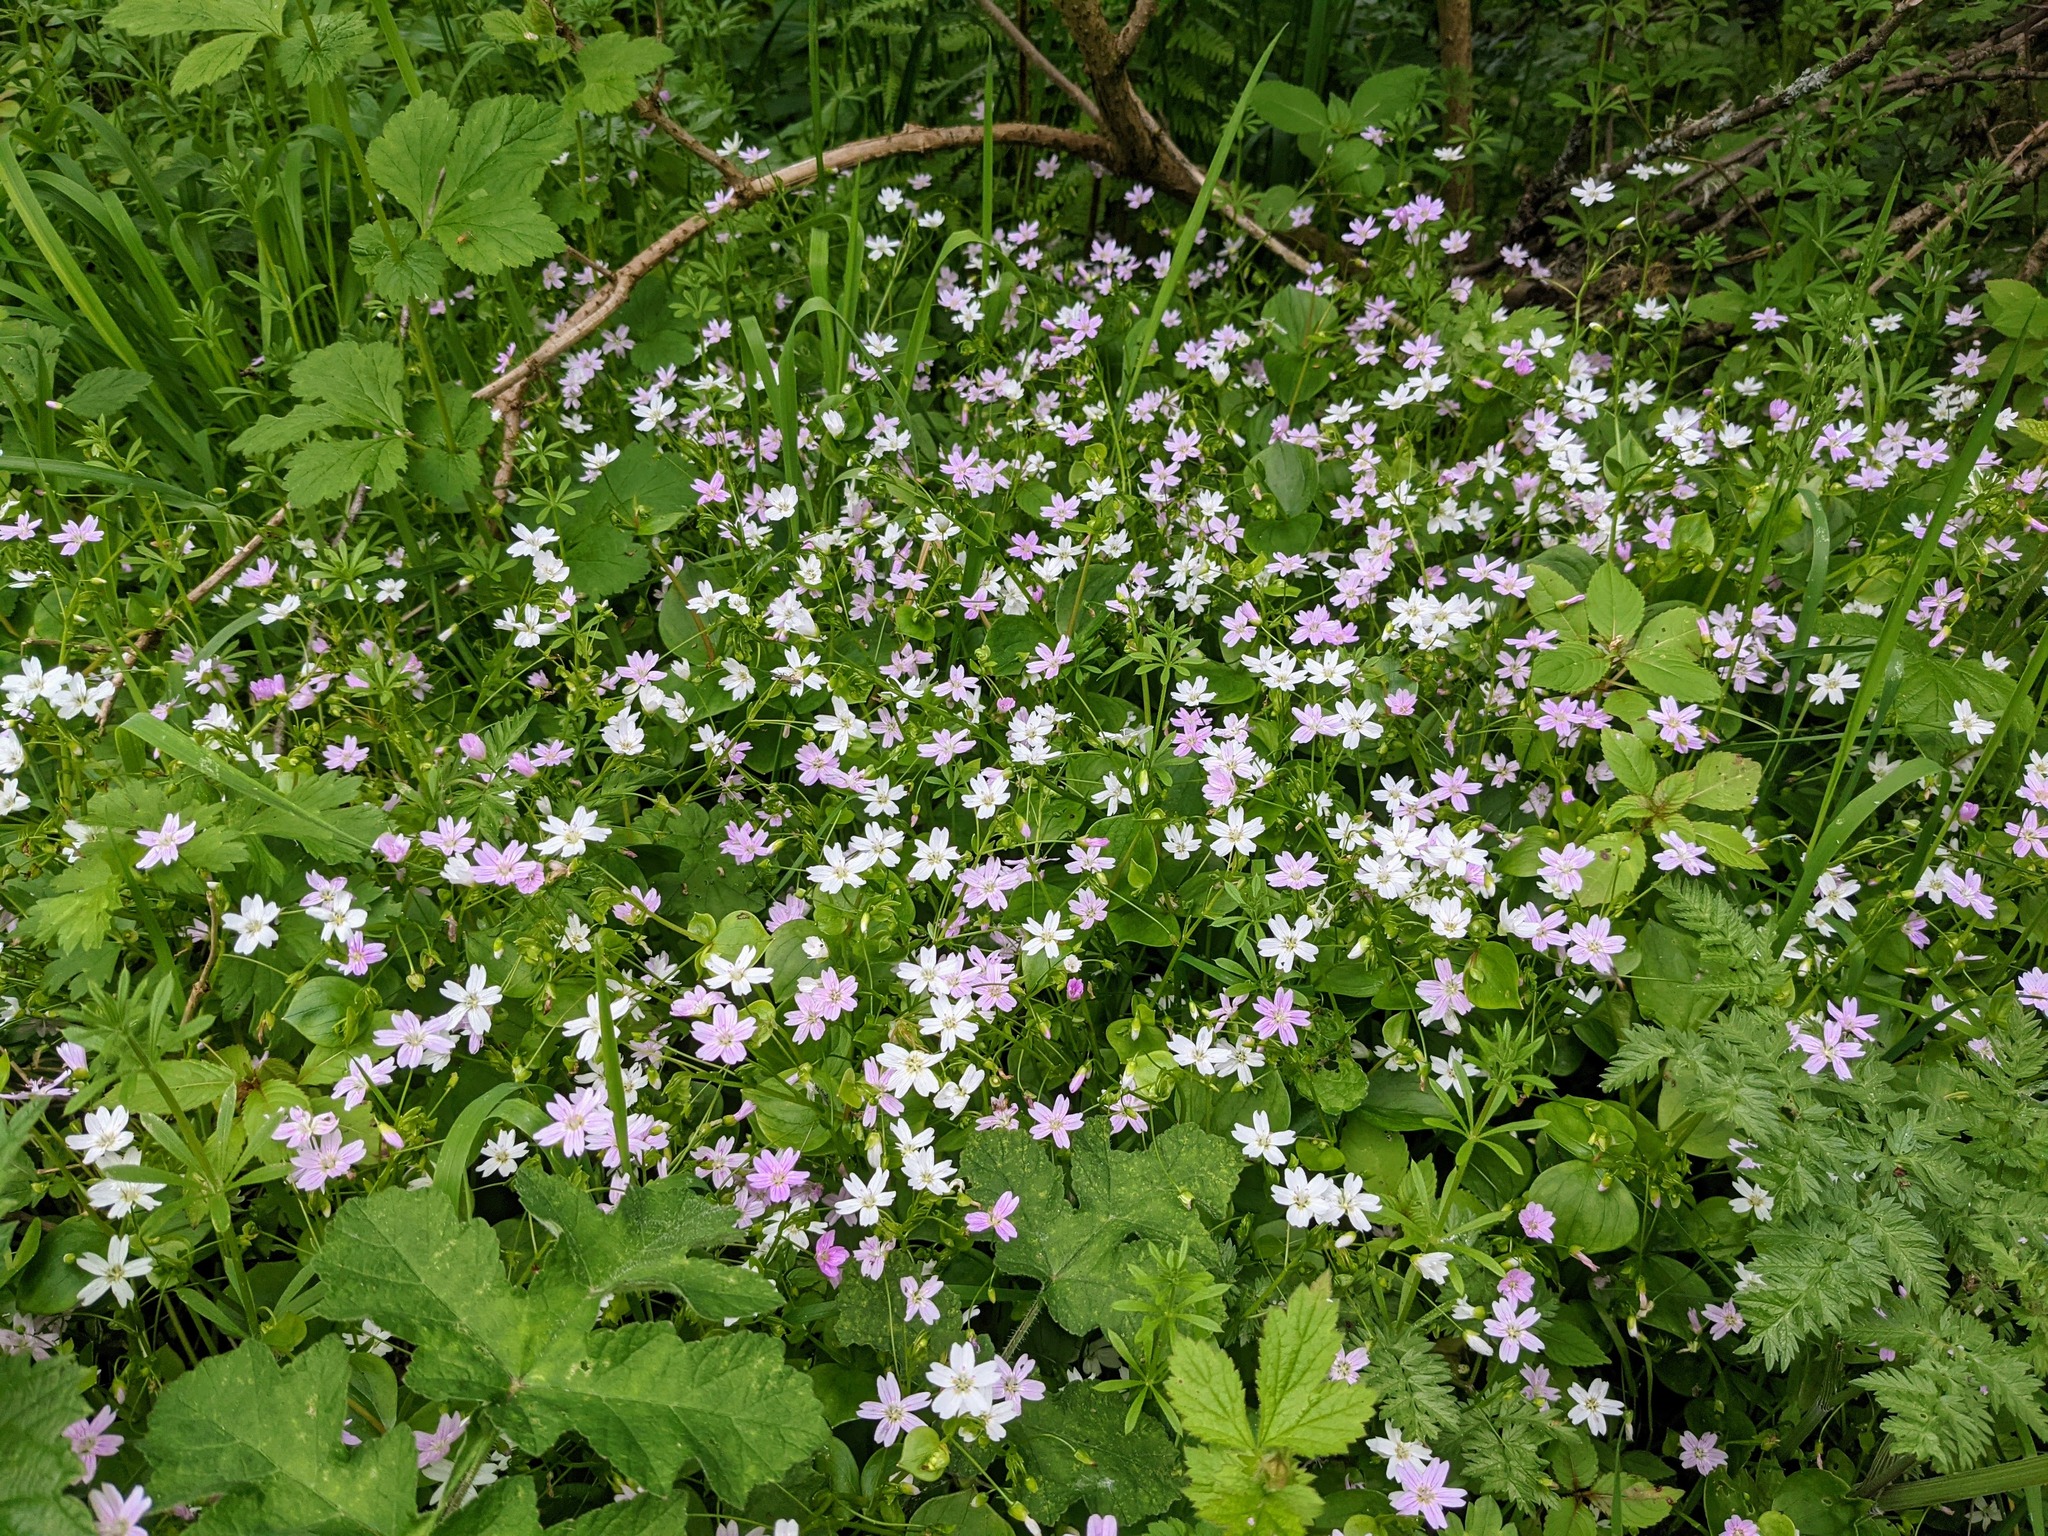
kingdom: Plantae
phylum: Tracheophyta
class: Magnoliopsida
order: Caryophyllales
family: Montiaceae
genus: Claytonia
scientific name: Claytonia sibirica
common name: Pink purslane
